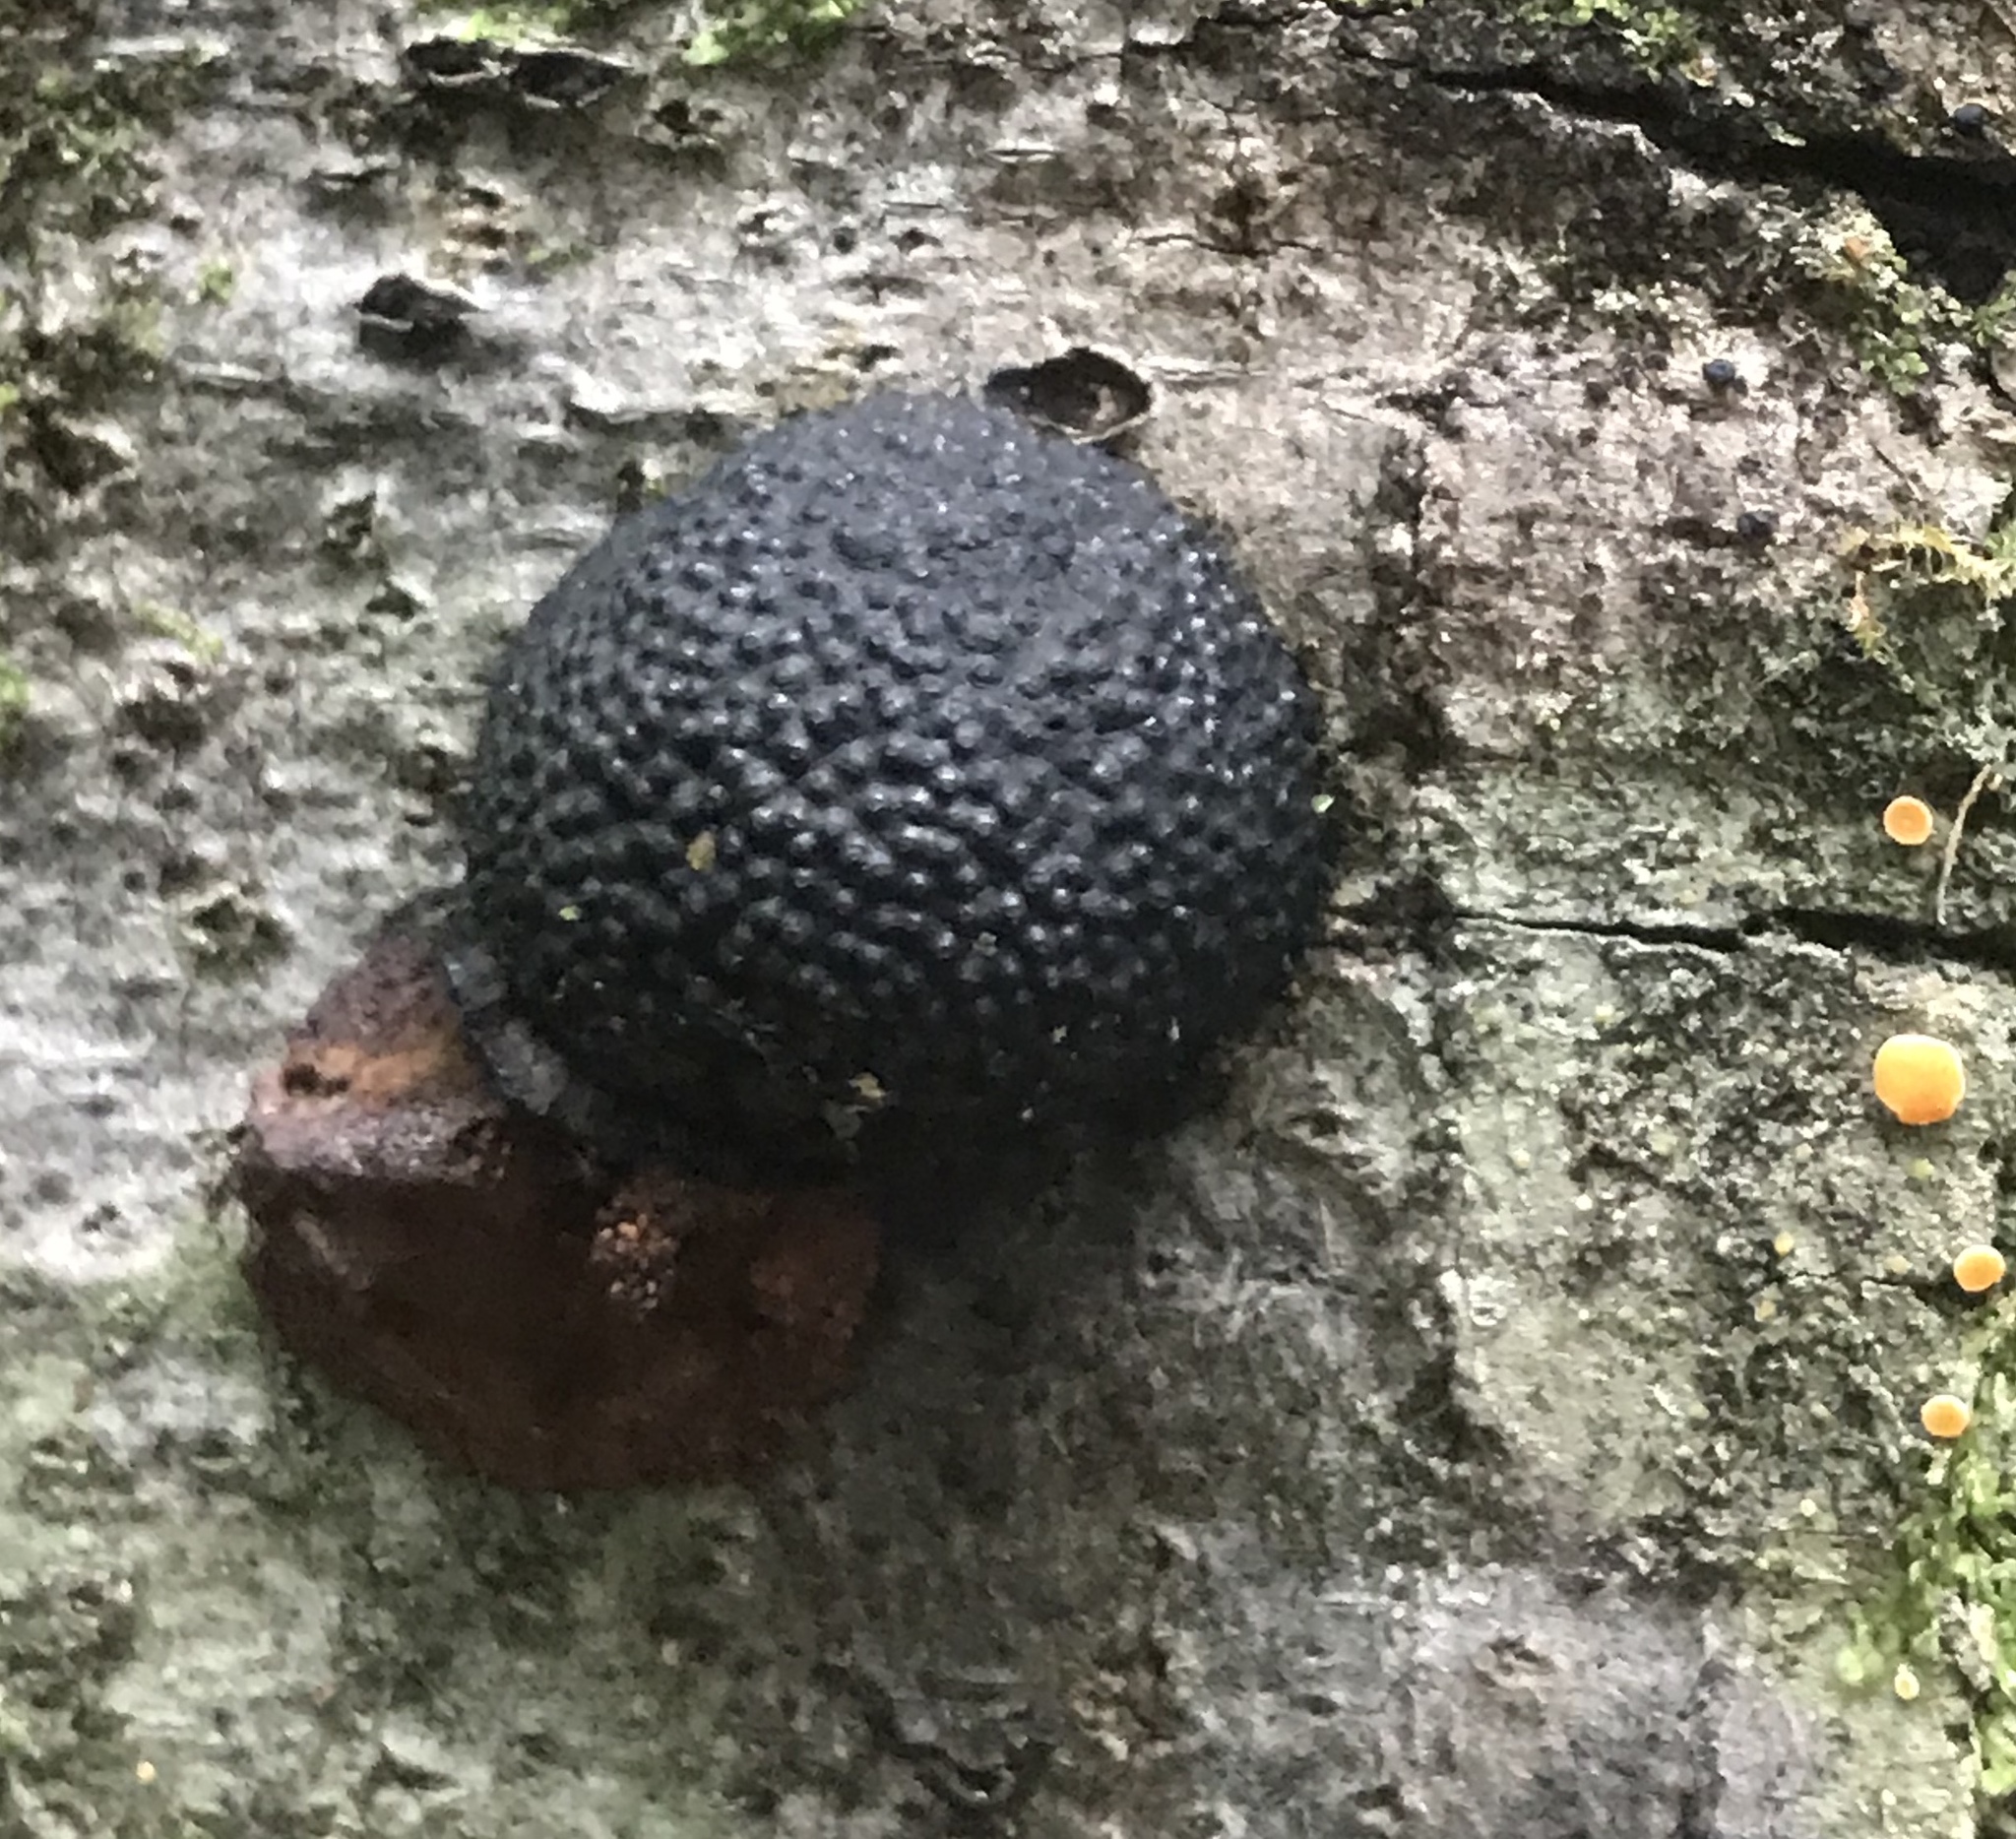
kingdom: Fungi
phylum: Ascomycota
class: Sordariomycetes
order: Xylariales
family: Hypoxylaceae
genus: Annulohypoxylon
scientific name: Annulohypoxylon thouarsianum
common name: Cramp balls
